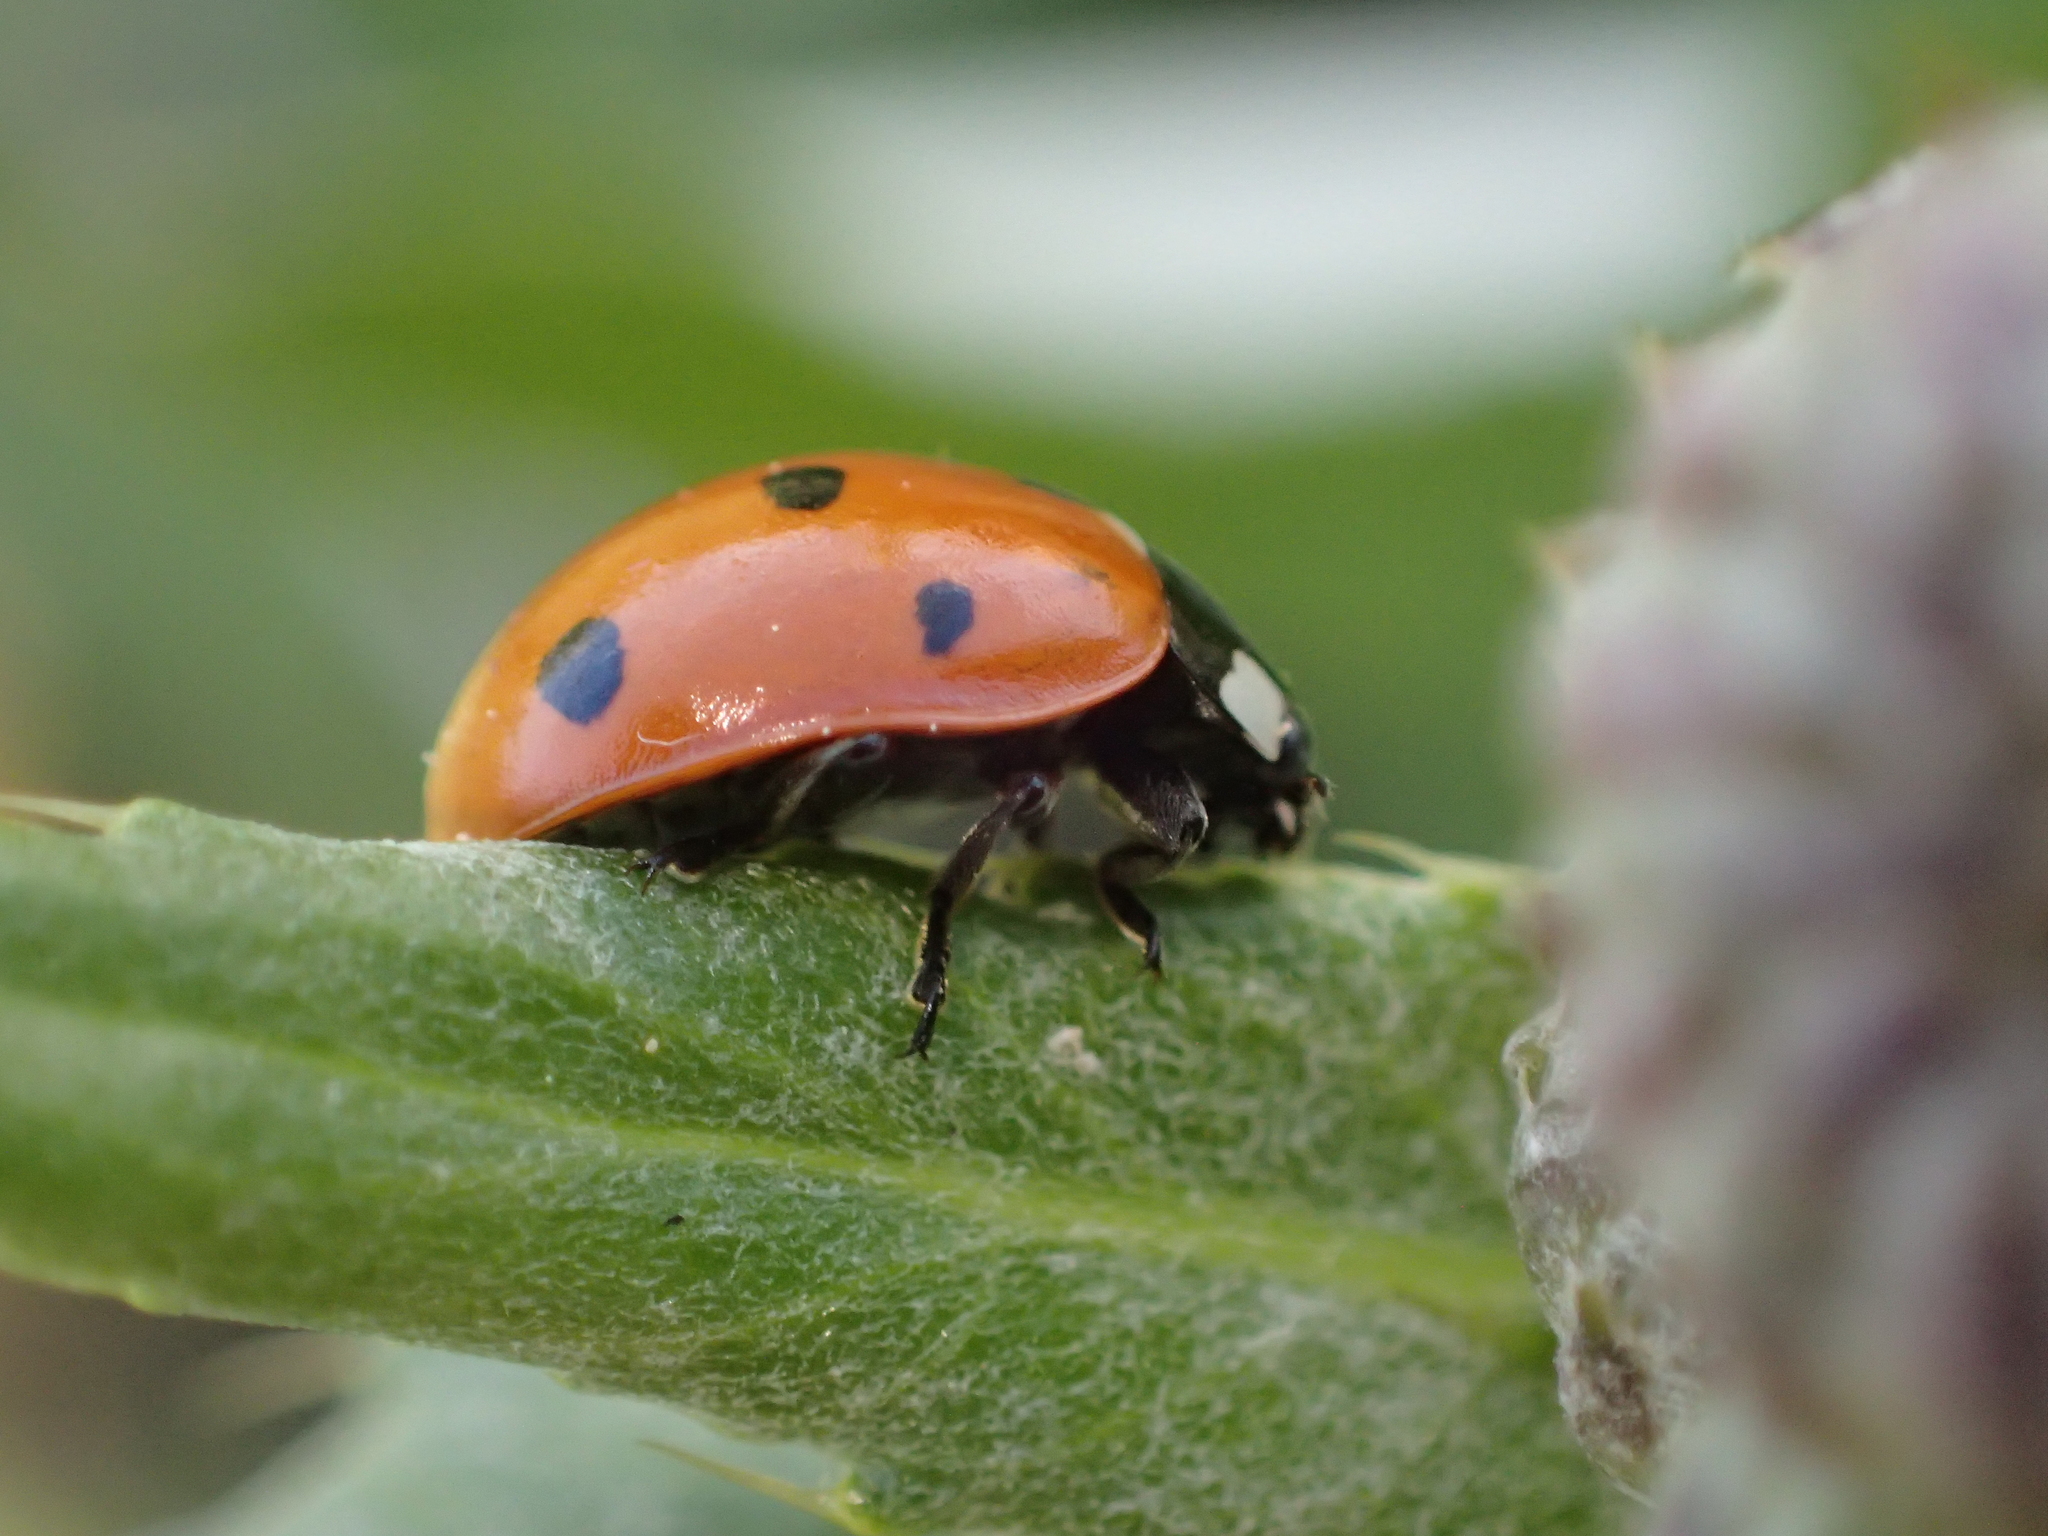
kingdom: Animalia
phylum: Arthropoda
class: Insecta
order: Coleoptera
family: Coccinellidae
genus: Coccinella
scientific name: Coccinella septempunctata
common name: Sevenspotted lady beetle
